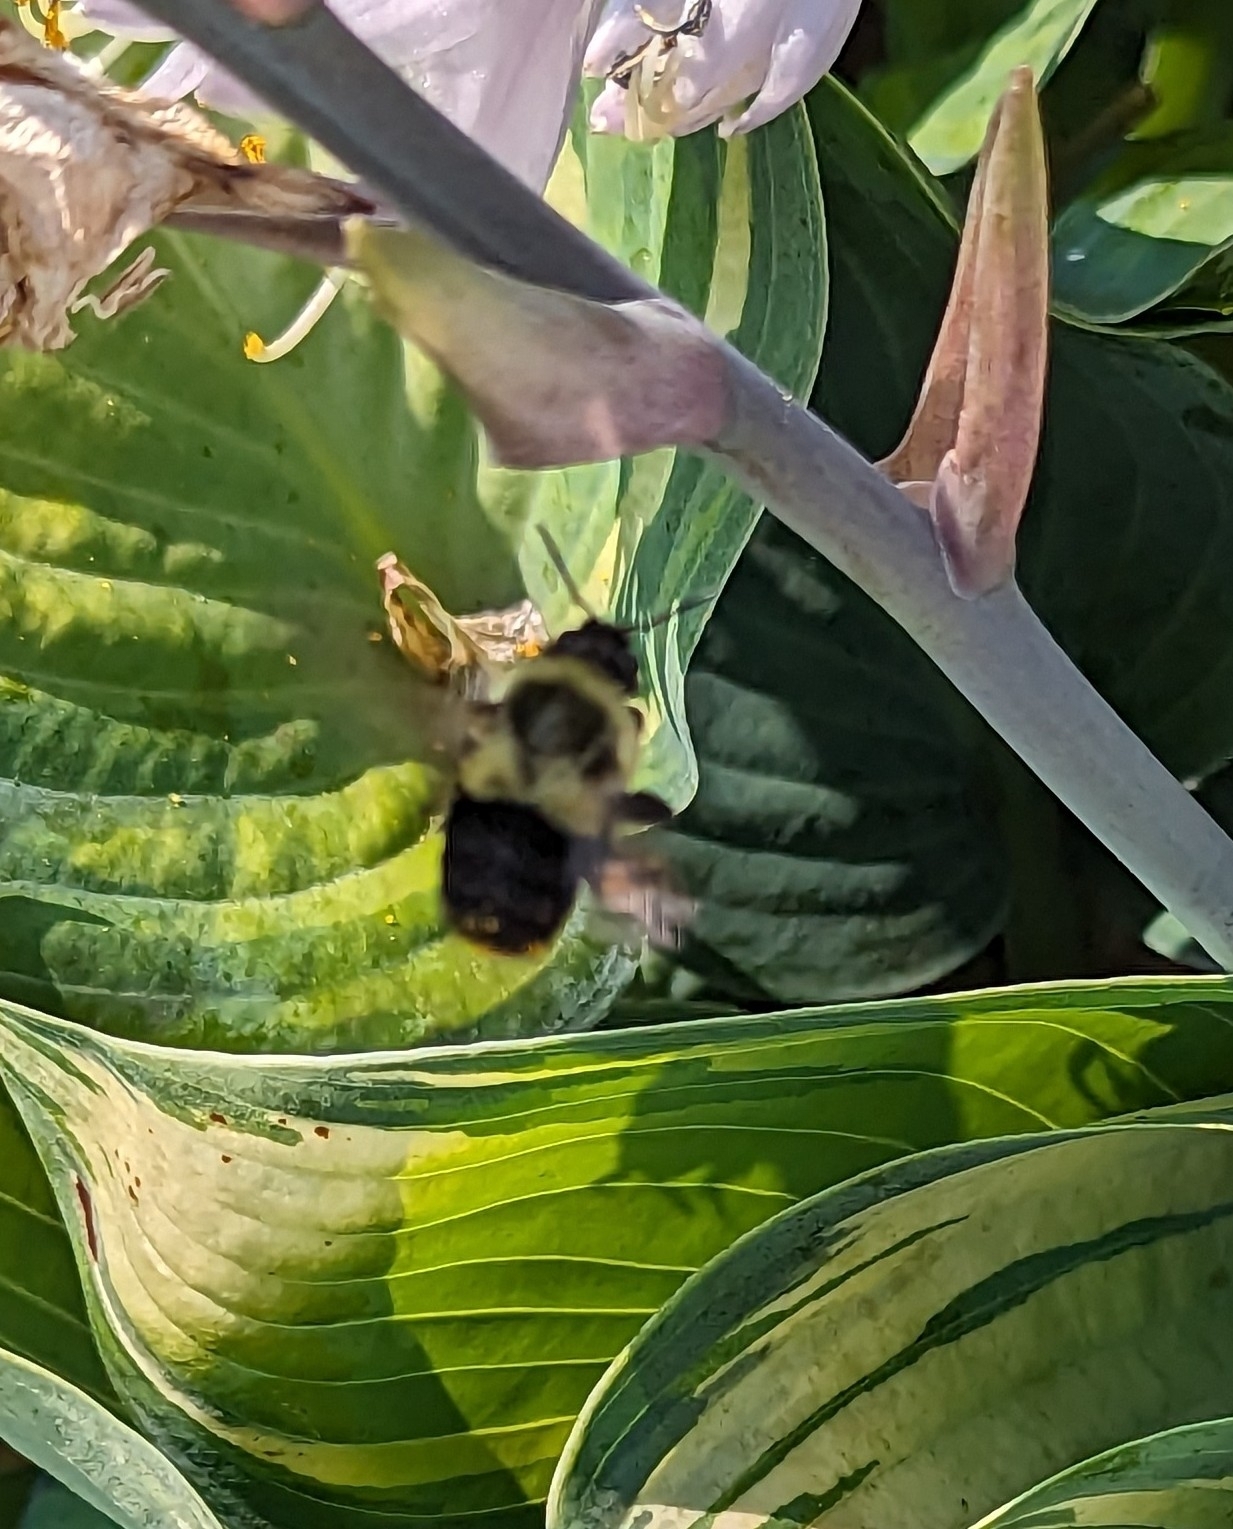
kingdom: Animalia
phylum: Arthropoda
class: Insecta
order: Hymenoptera
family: Apidae
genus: Bombus
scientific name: Bombus impatiens
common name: Common eastern bumble bee
